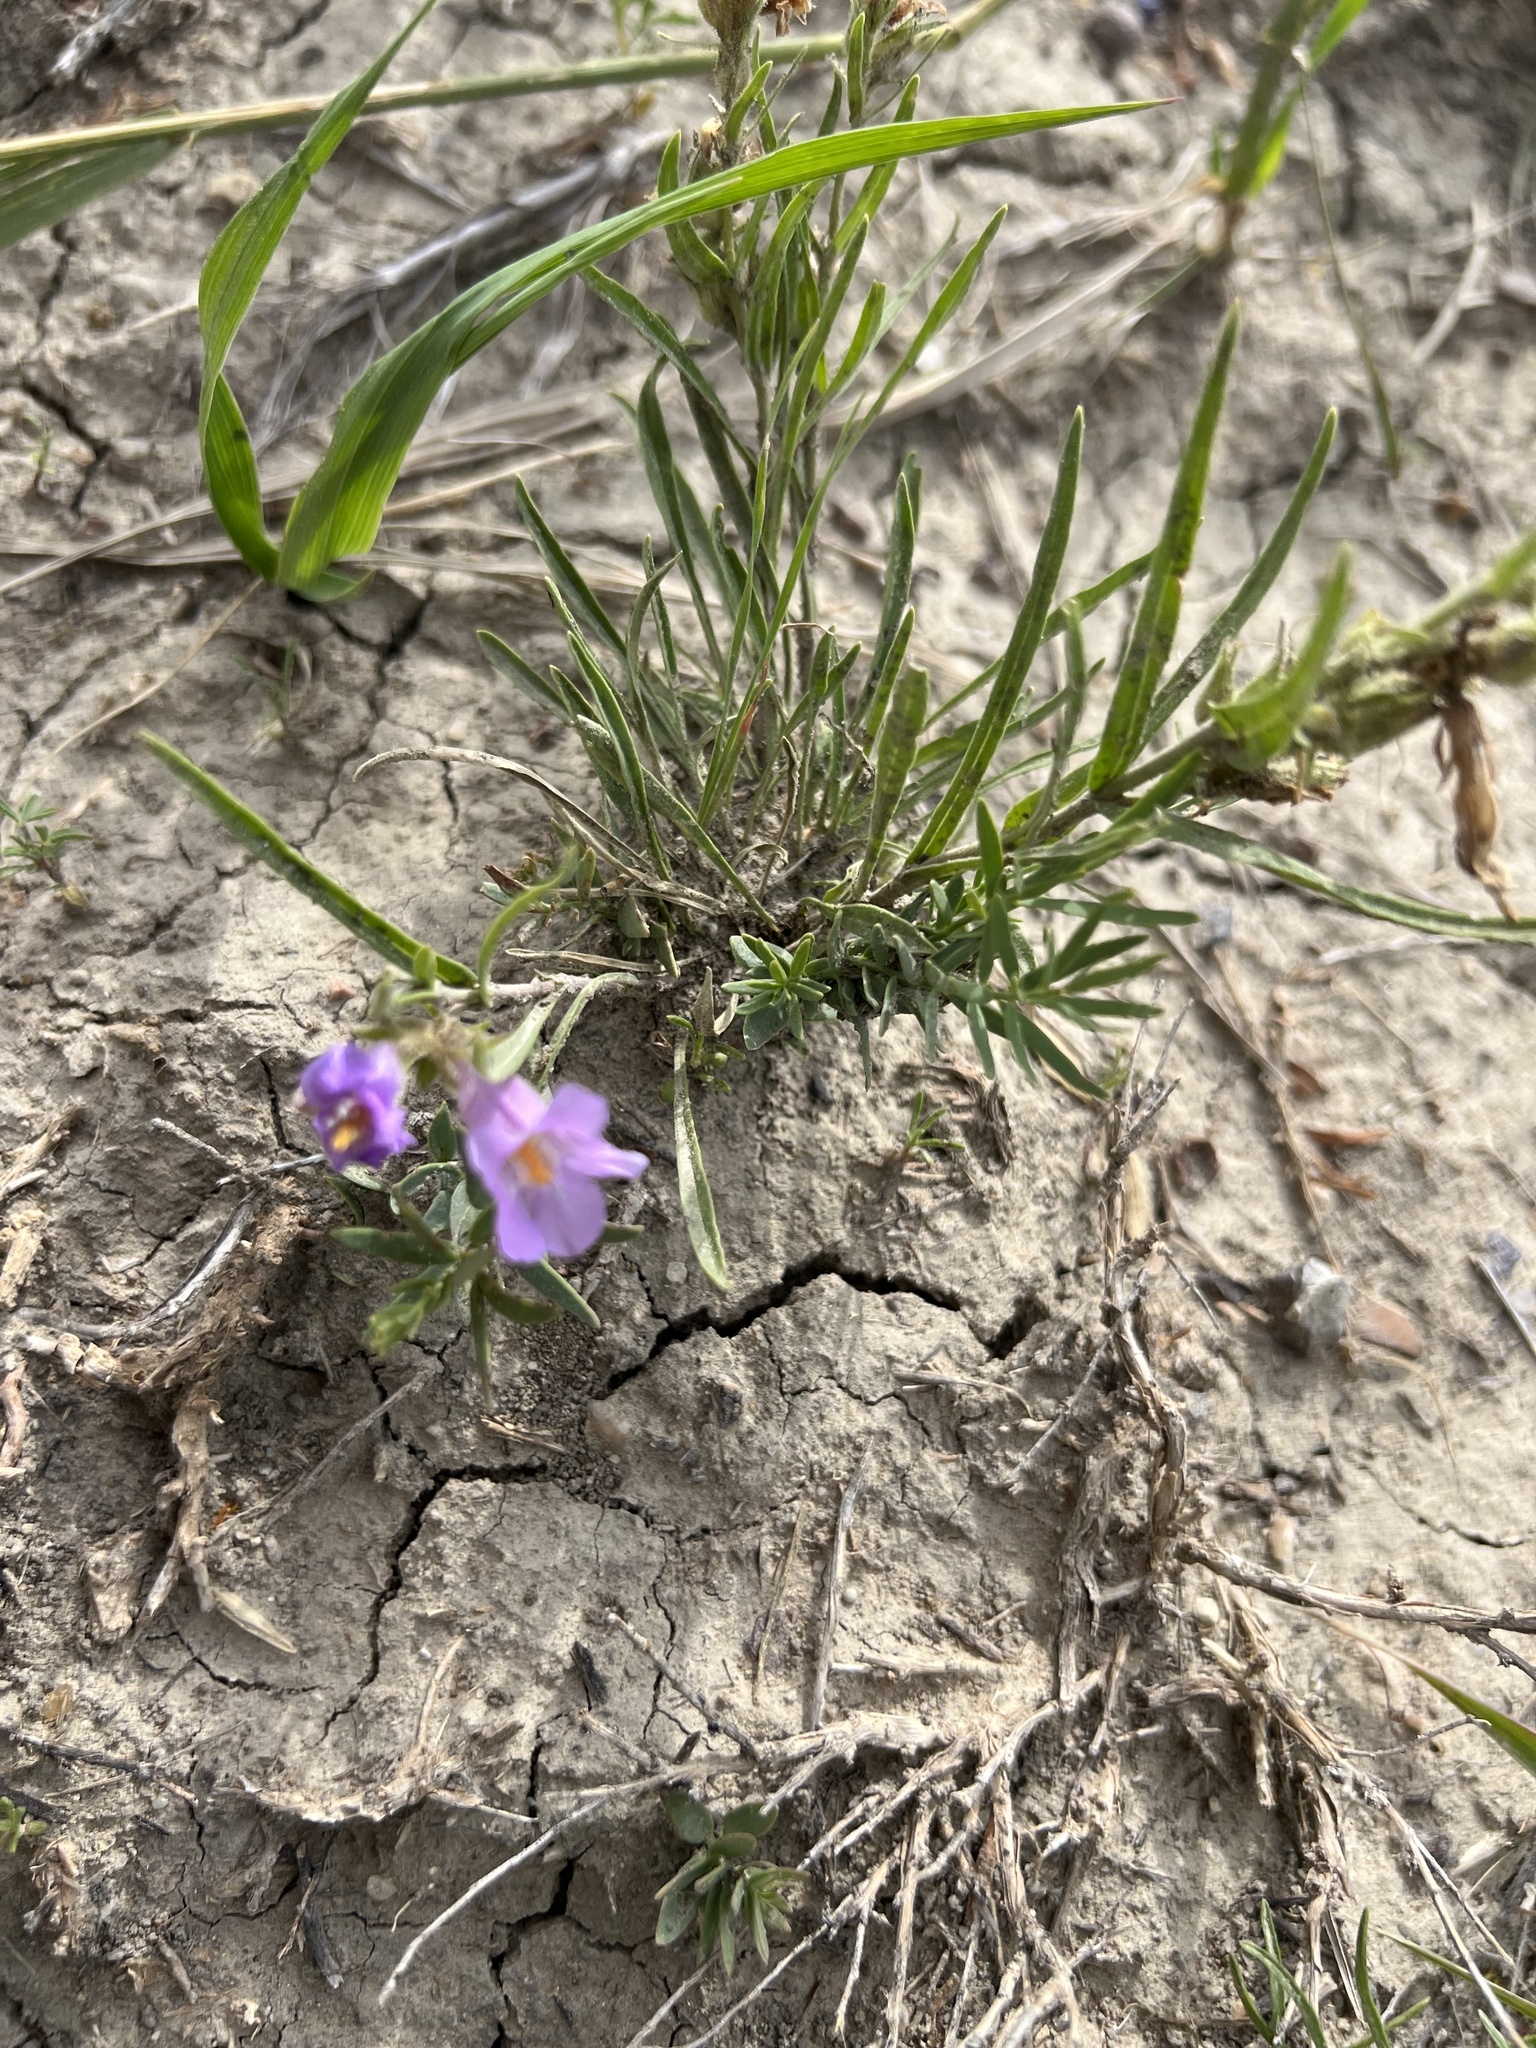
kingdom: Plantae
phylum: Tracheophyta
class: Magnoliopsida
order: Lamiales
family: Plantaginaceae
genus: Penstemon
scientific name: Penstemon auriberbis
